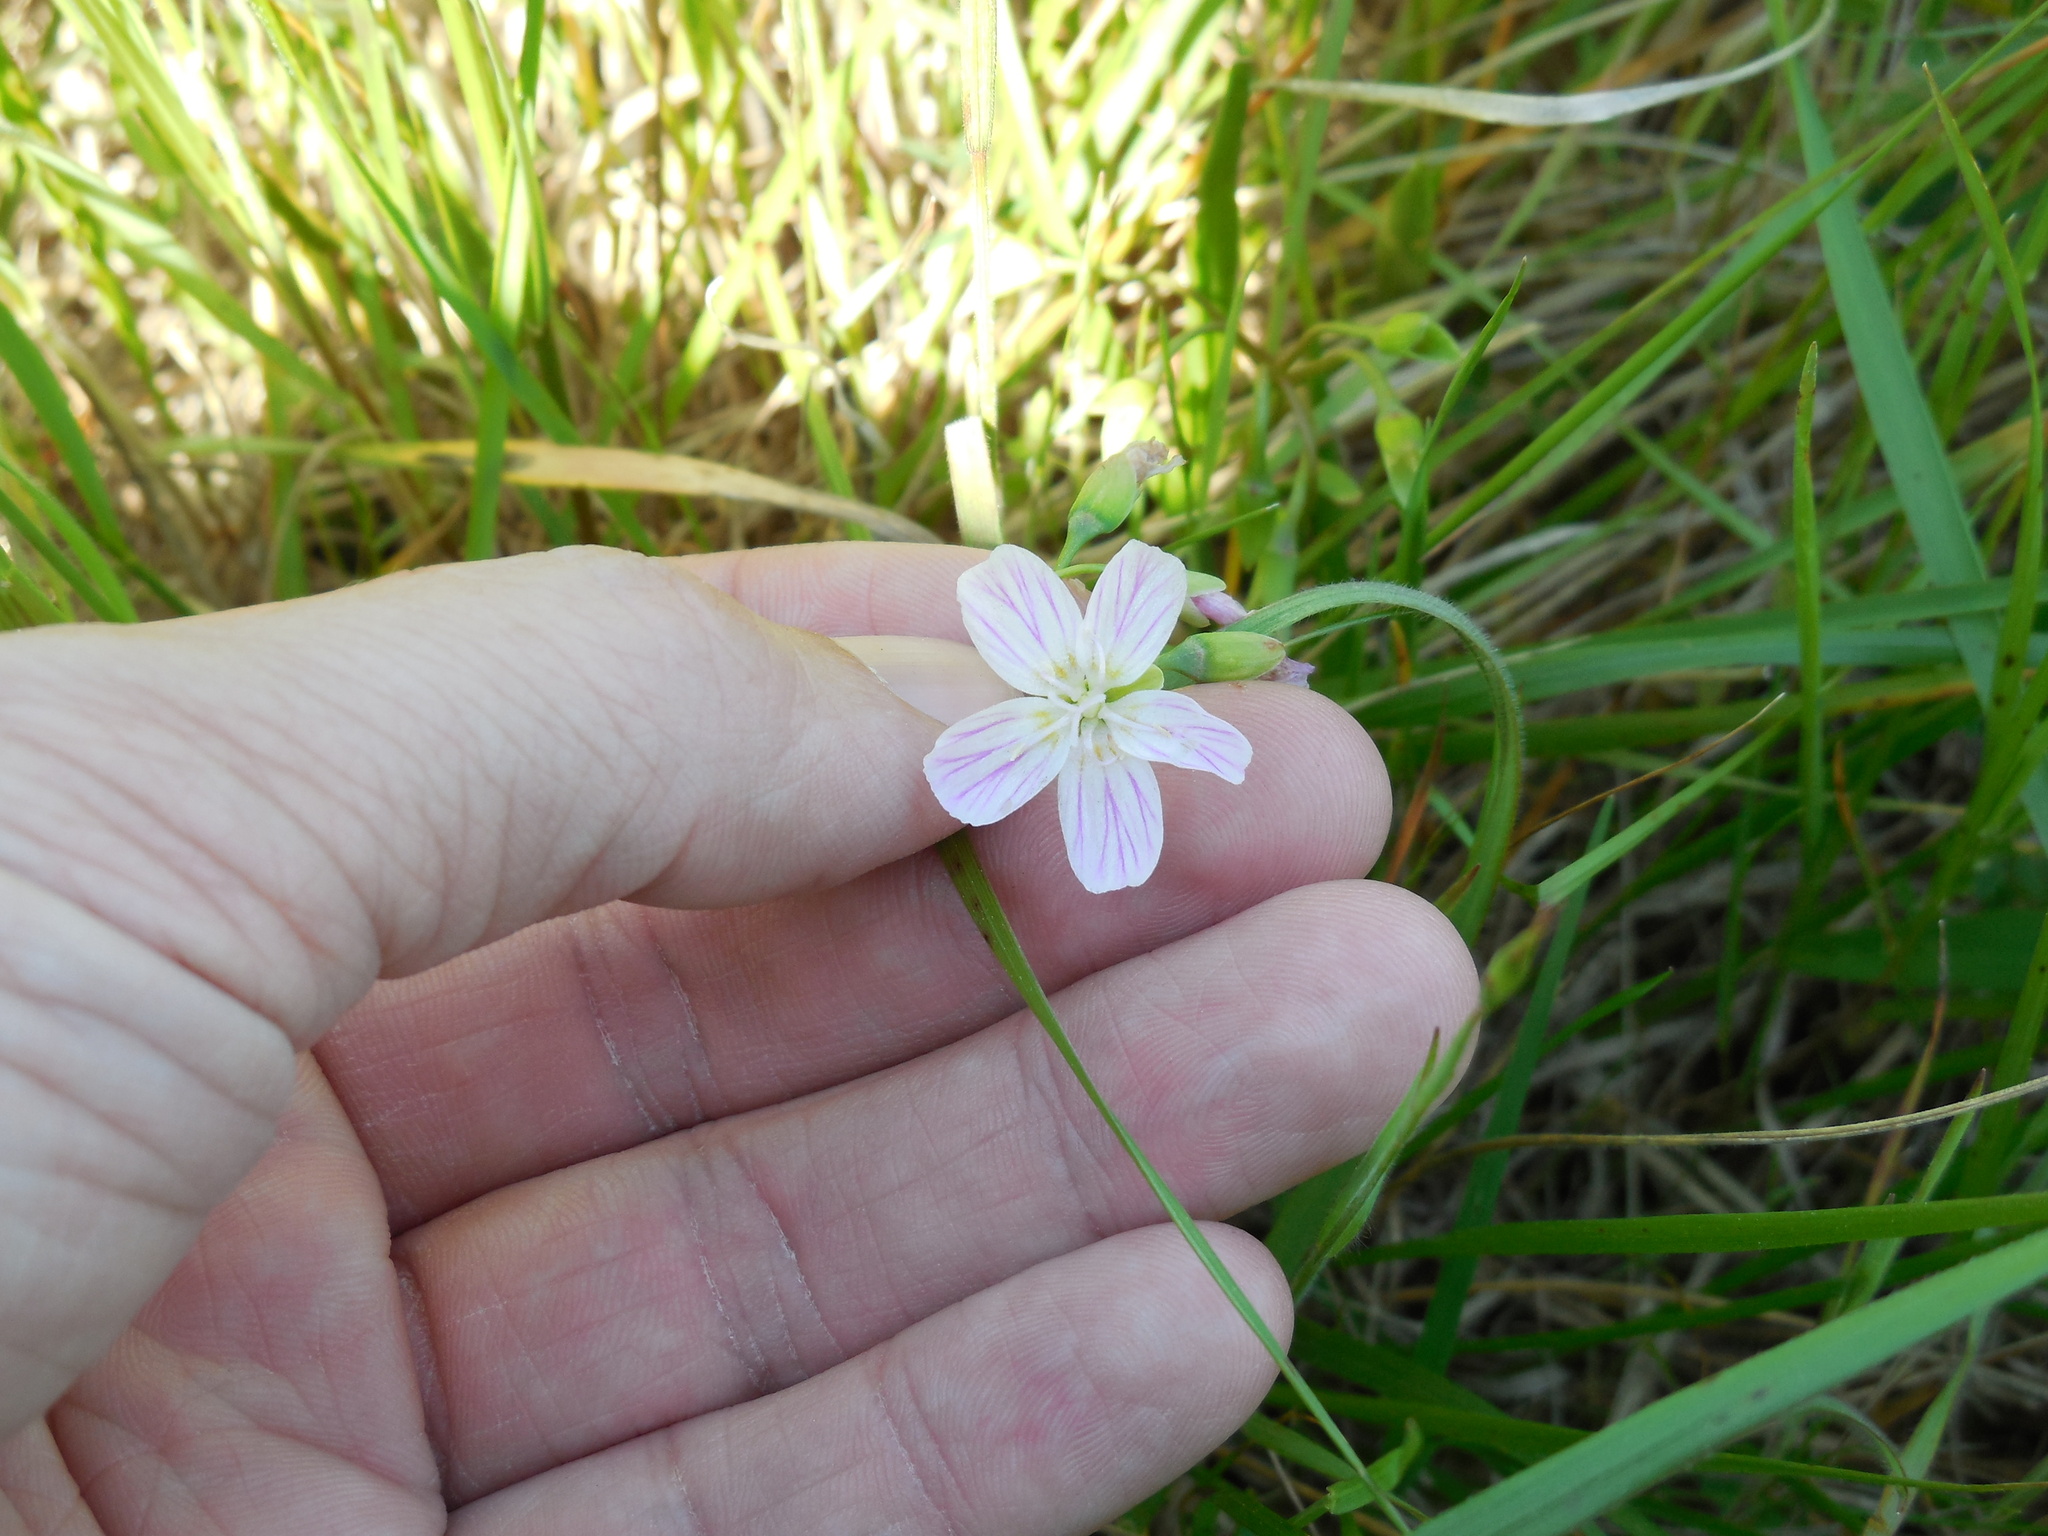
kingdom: Plantae
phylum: Tracheophyta
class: Magnoliopsida
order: Caryophyllales
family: Montiaceae
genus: Claytonia
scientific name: Claytonia virginica
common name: Virginia springbeauty
